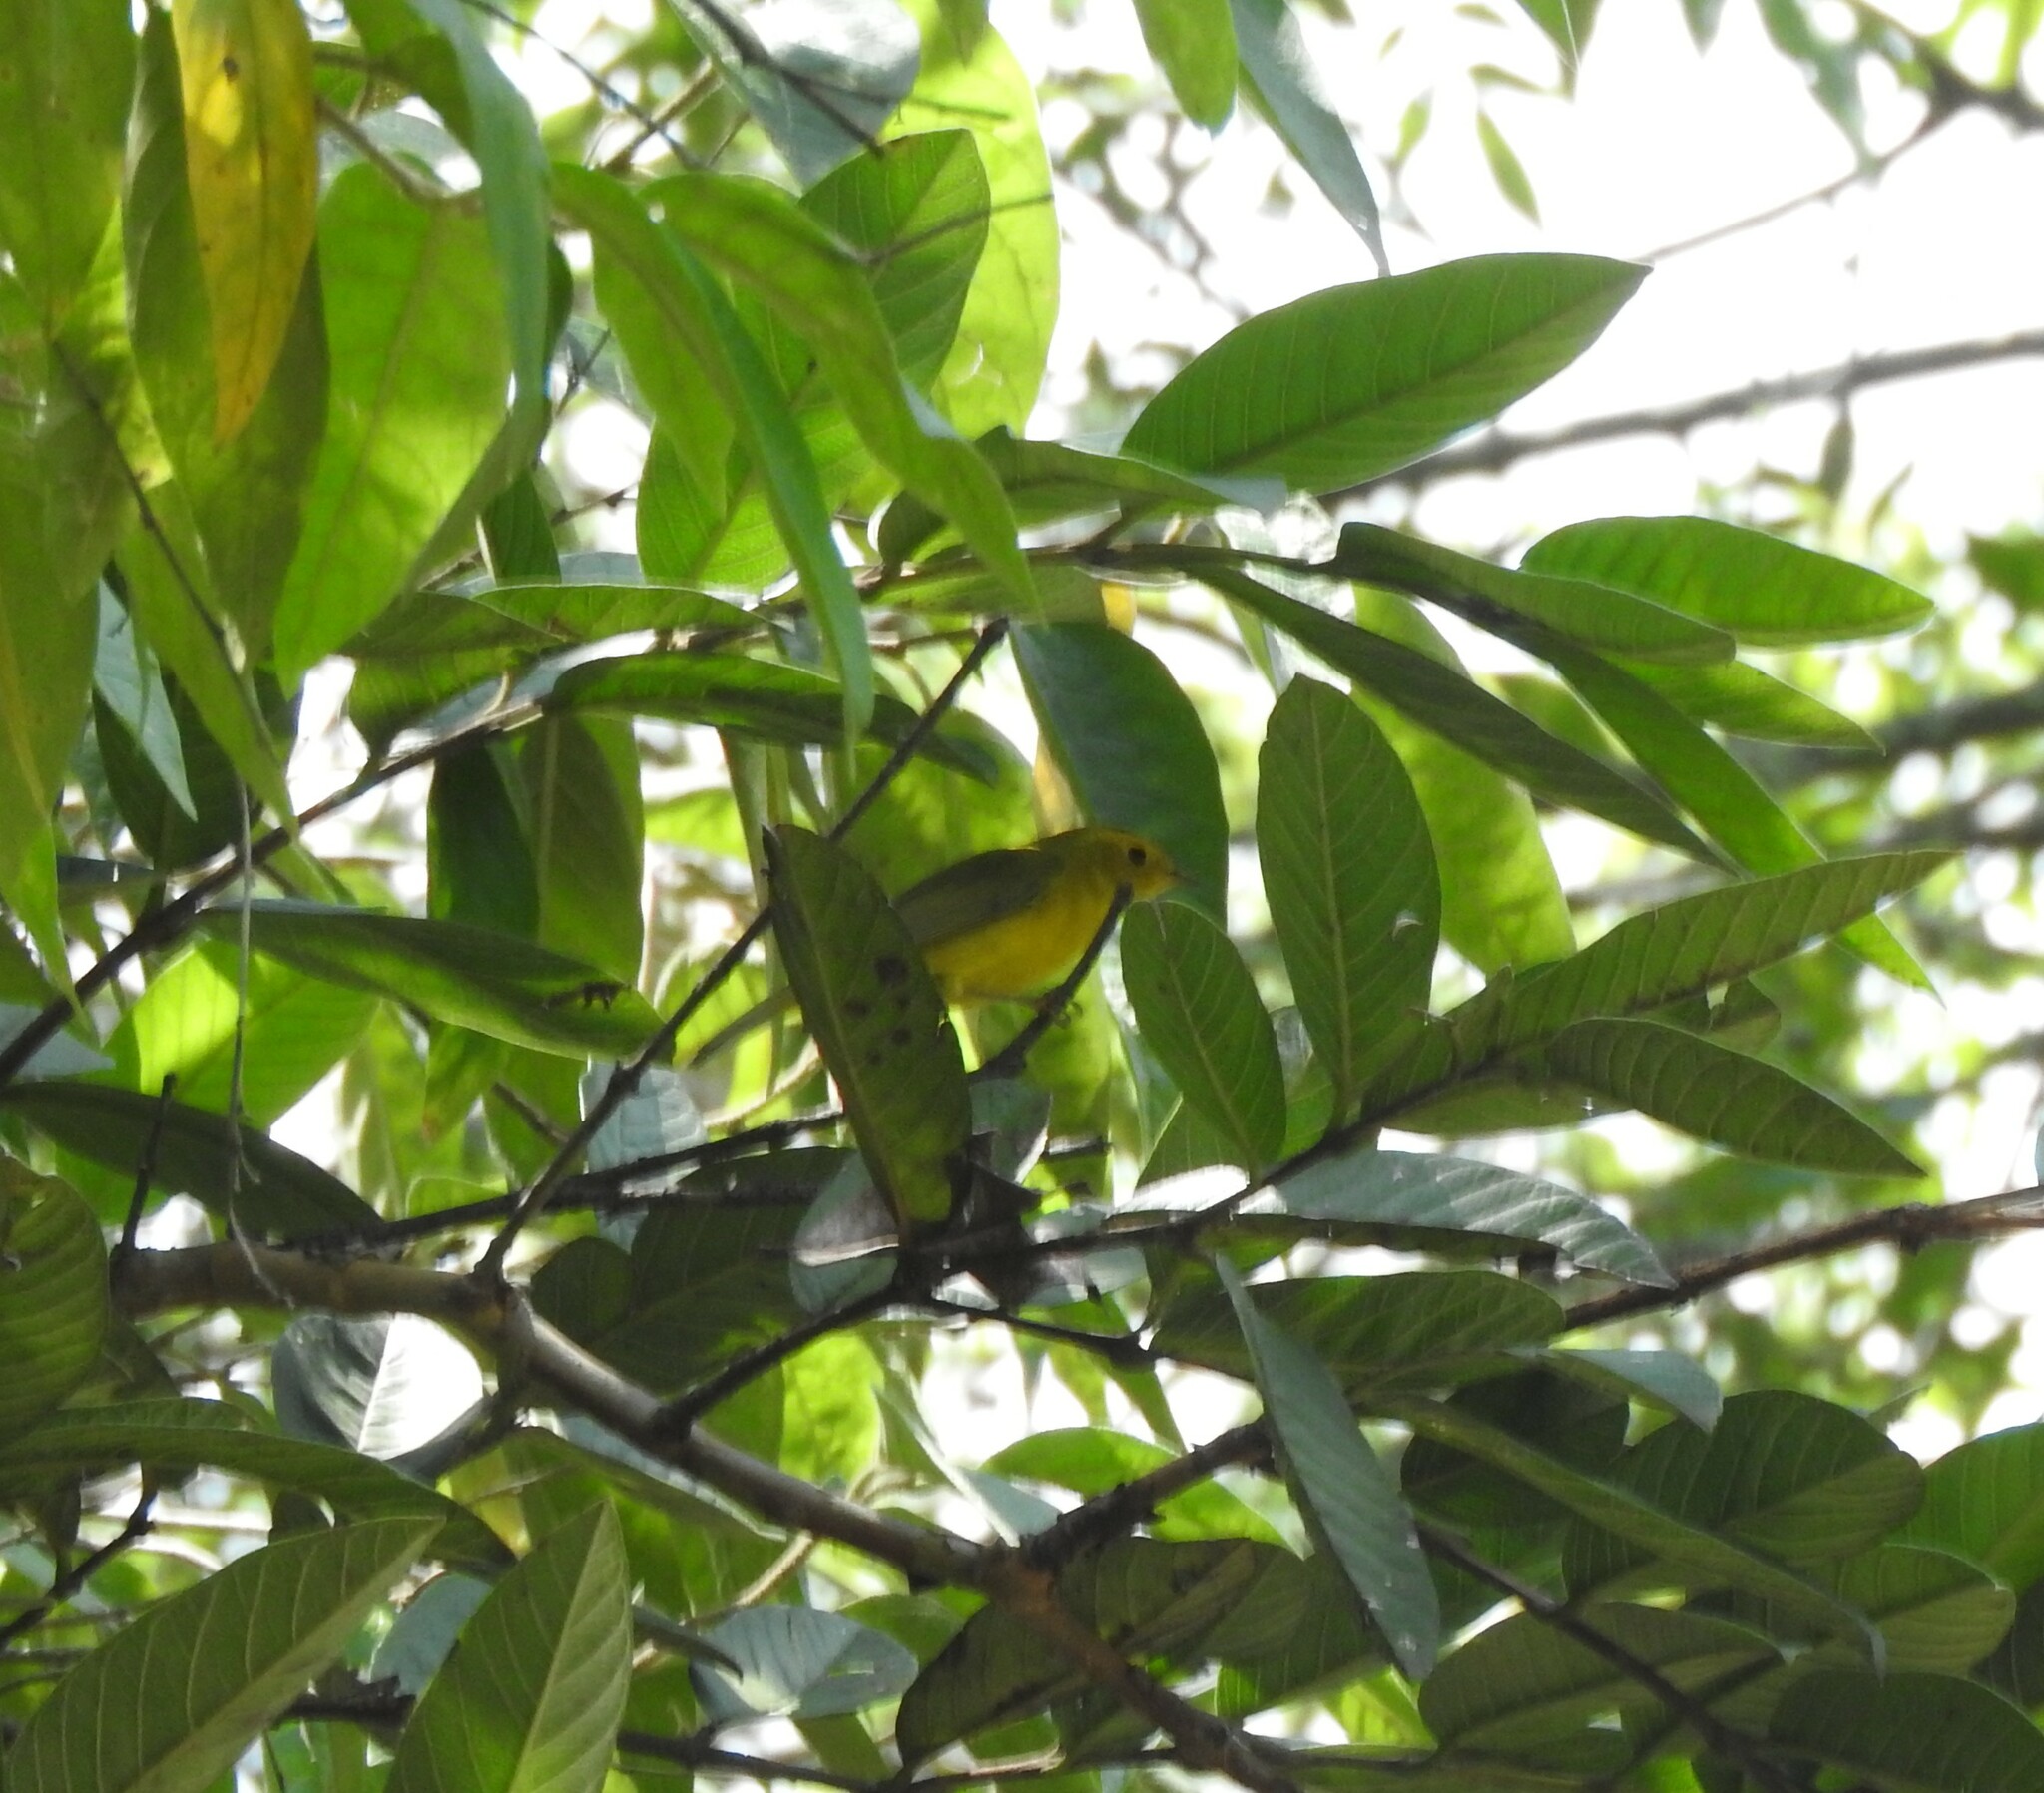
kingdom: Animalia
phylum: Chordata
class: Aves
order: Passeriformes
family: Parulidae
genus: Cardellina
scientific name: Cardellina pusilla
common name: Wilson's warbler
